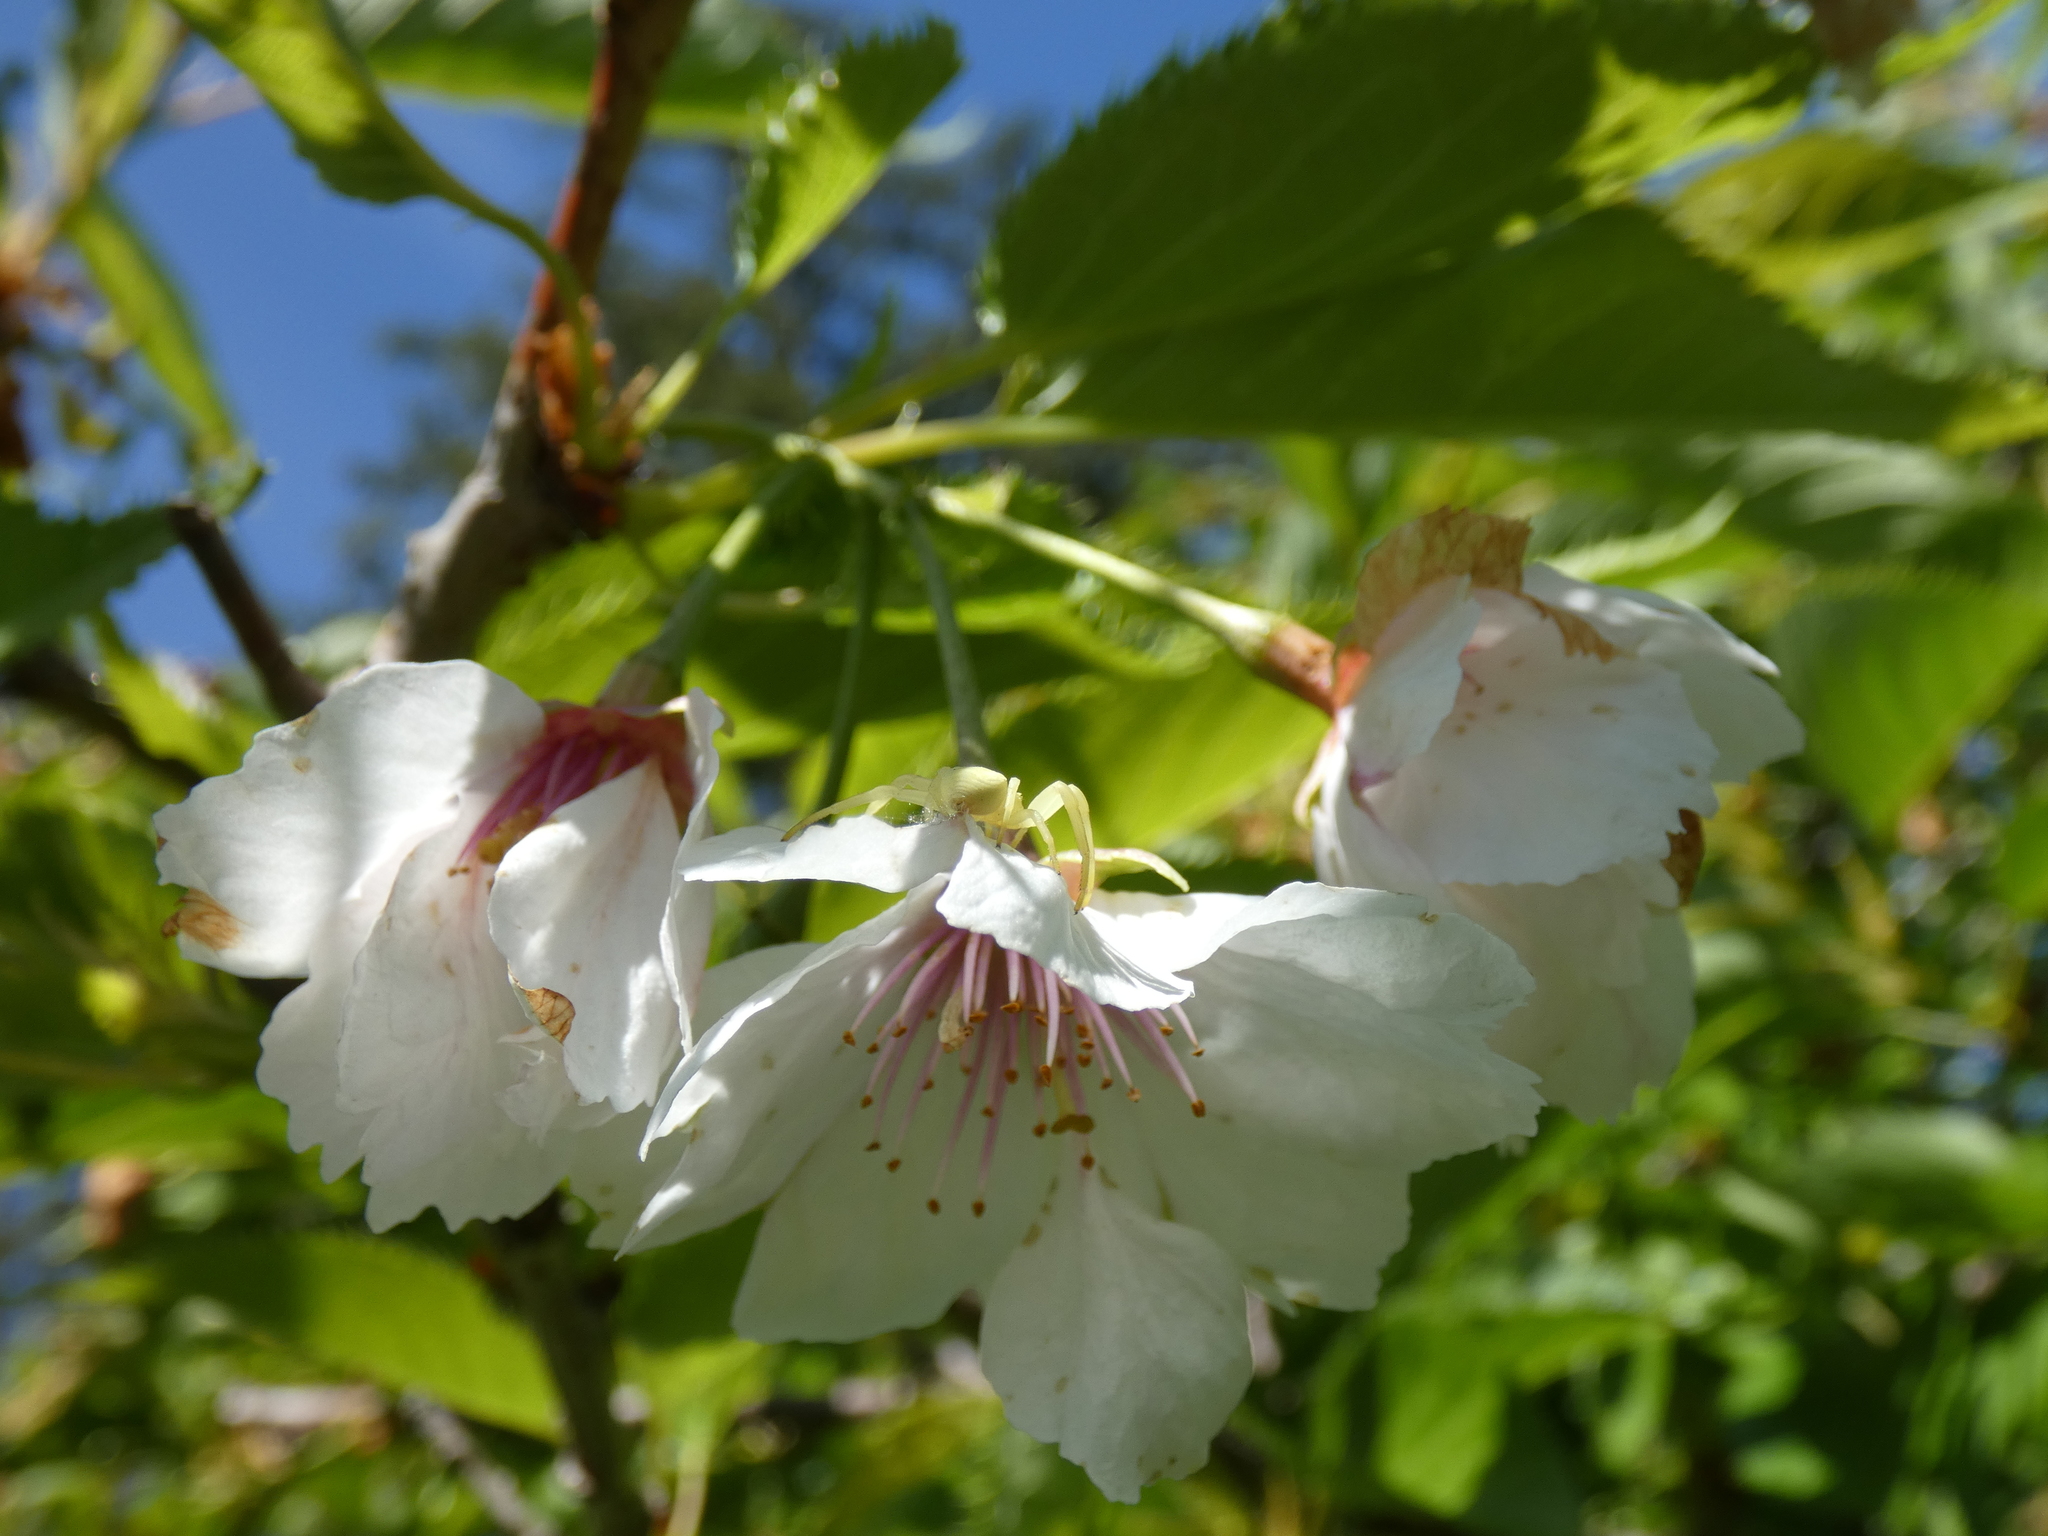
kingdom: Animalia
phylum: Arthropoda
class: Arachnida
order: Araneae
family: Thomisidae
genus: Misumena
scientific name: Misumena vatia
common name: Goldenrod crab spider
